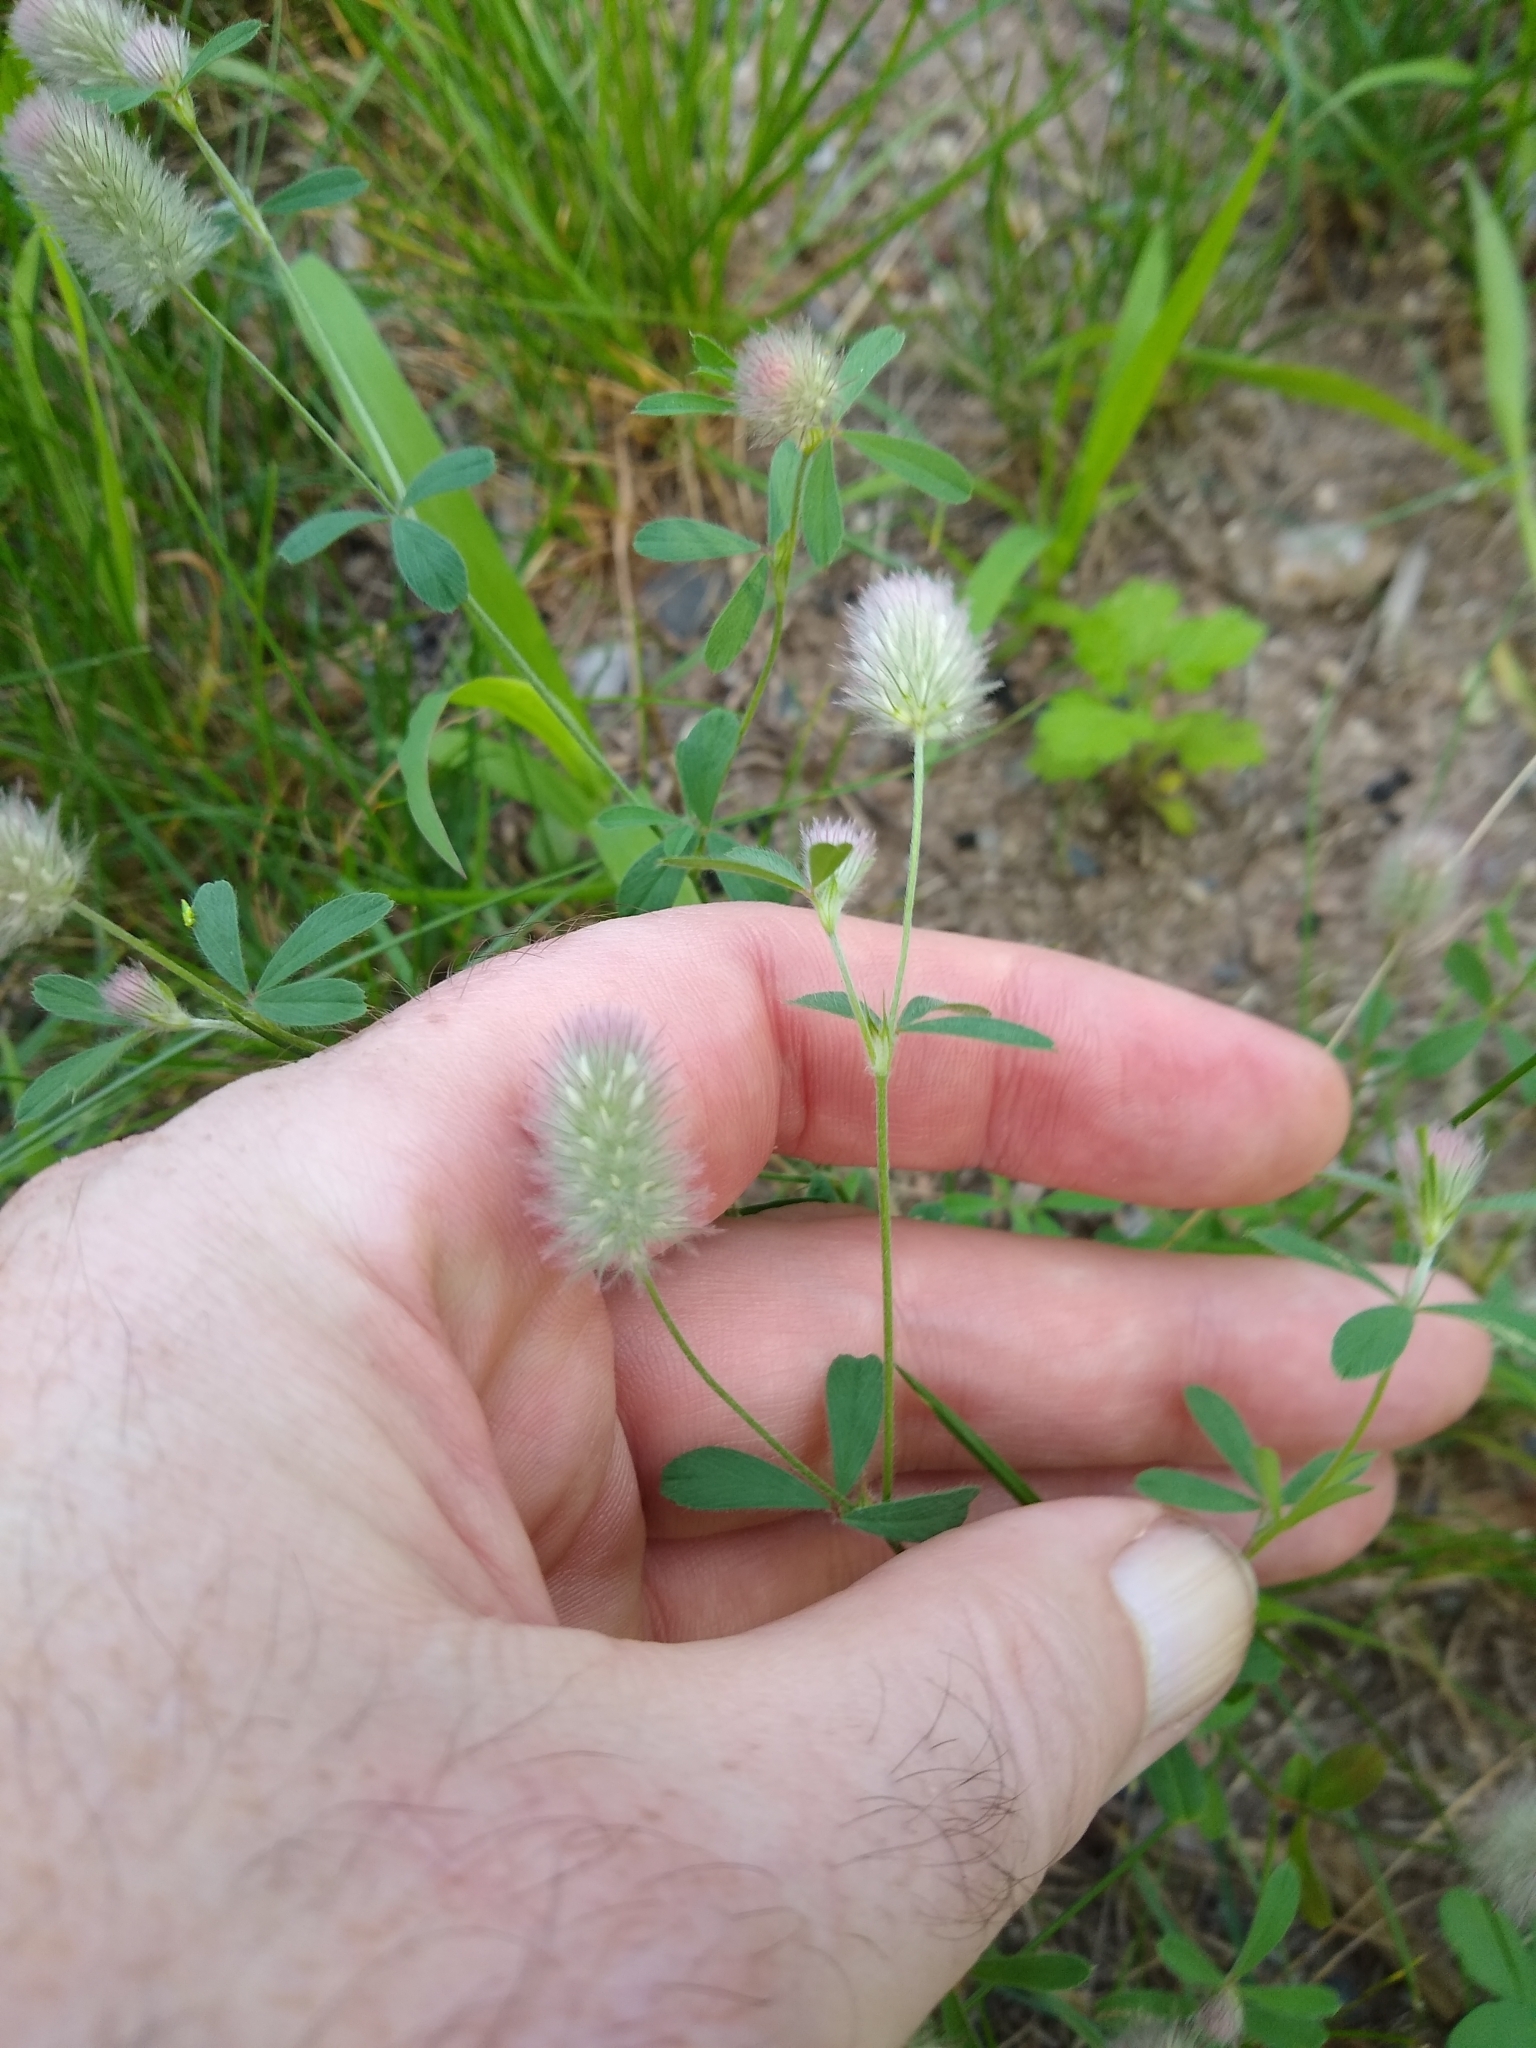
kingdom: Plantae
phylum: Tracheophyta
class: Magnoliopsida
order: Fabales
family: Fabaceae
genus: Trifolium
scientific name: Trifolium arvense
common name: Hare's-foot clover
